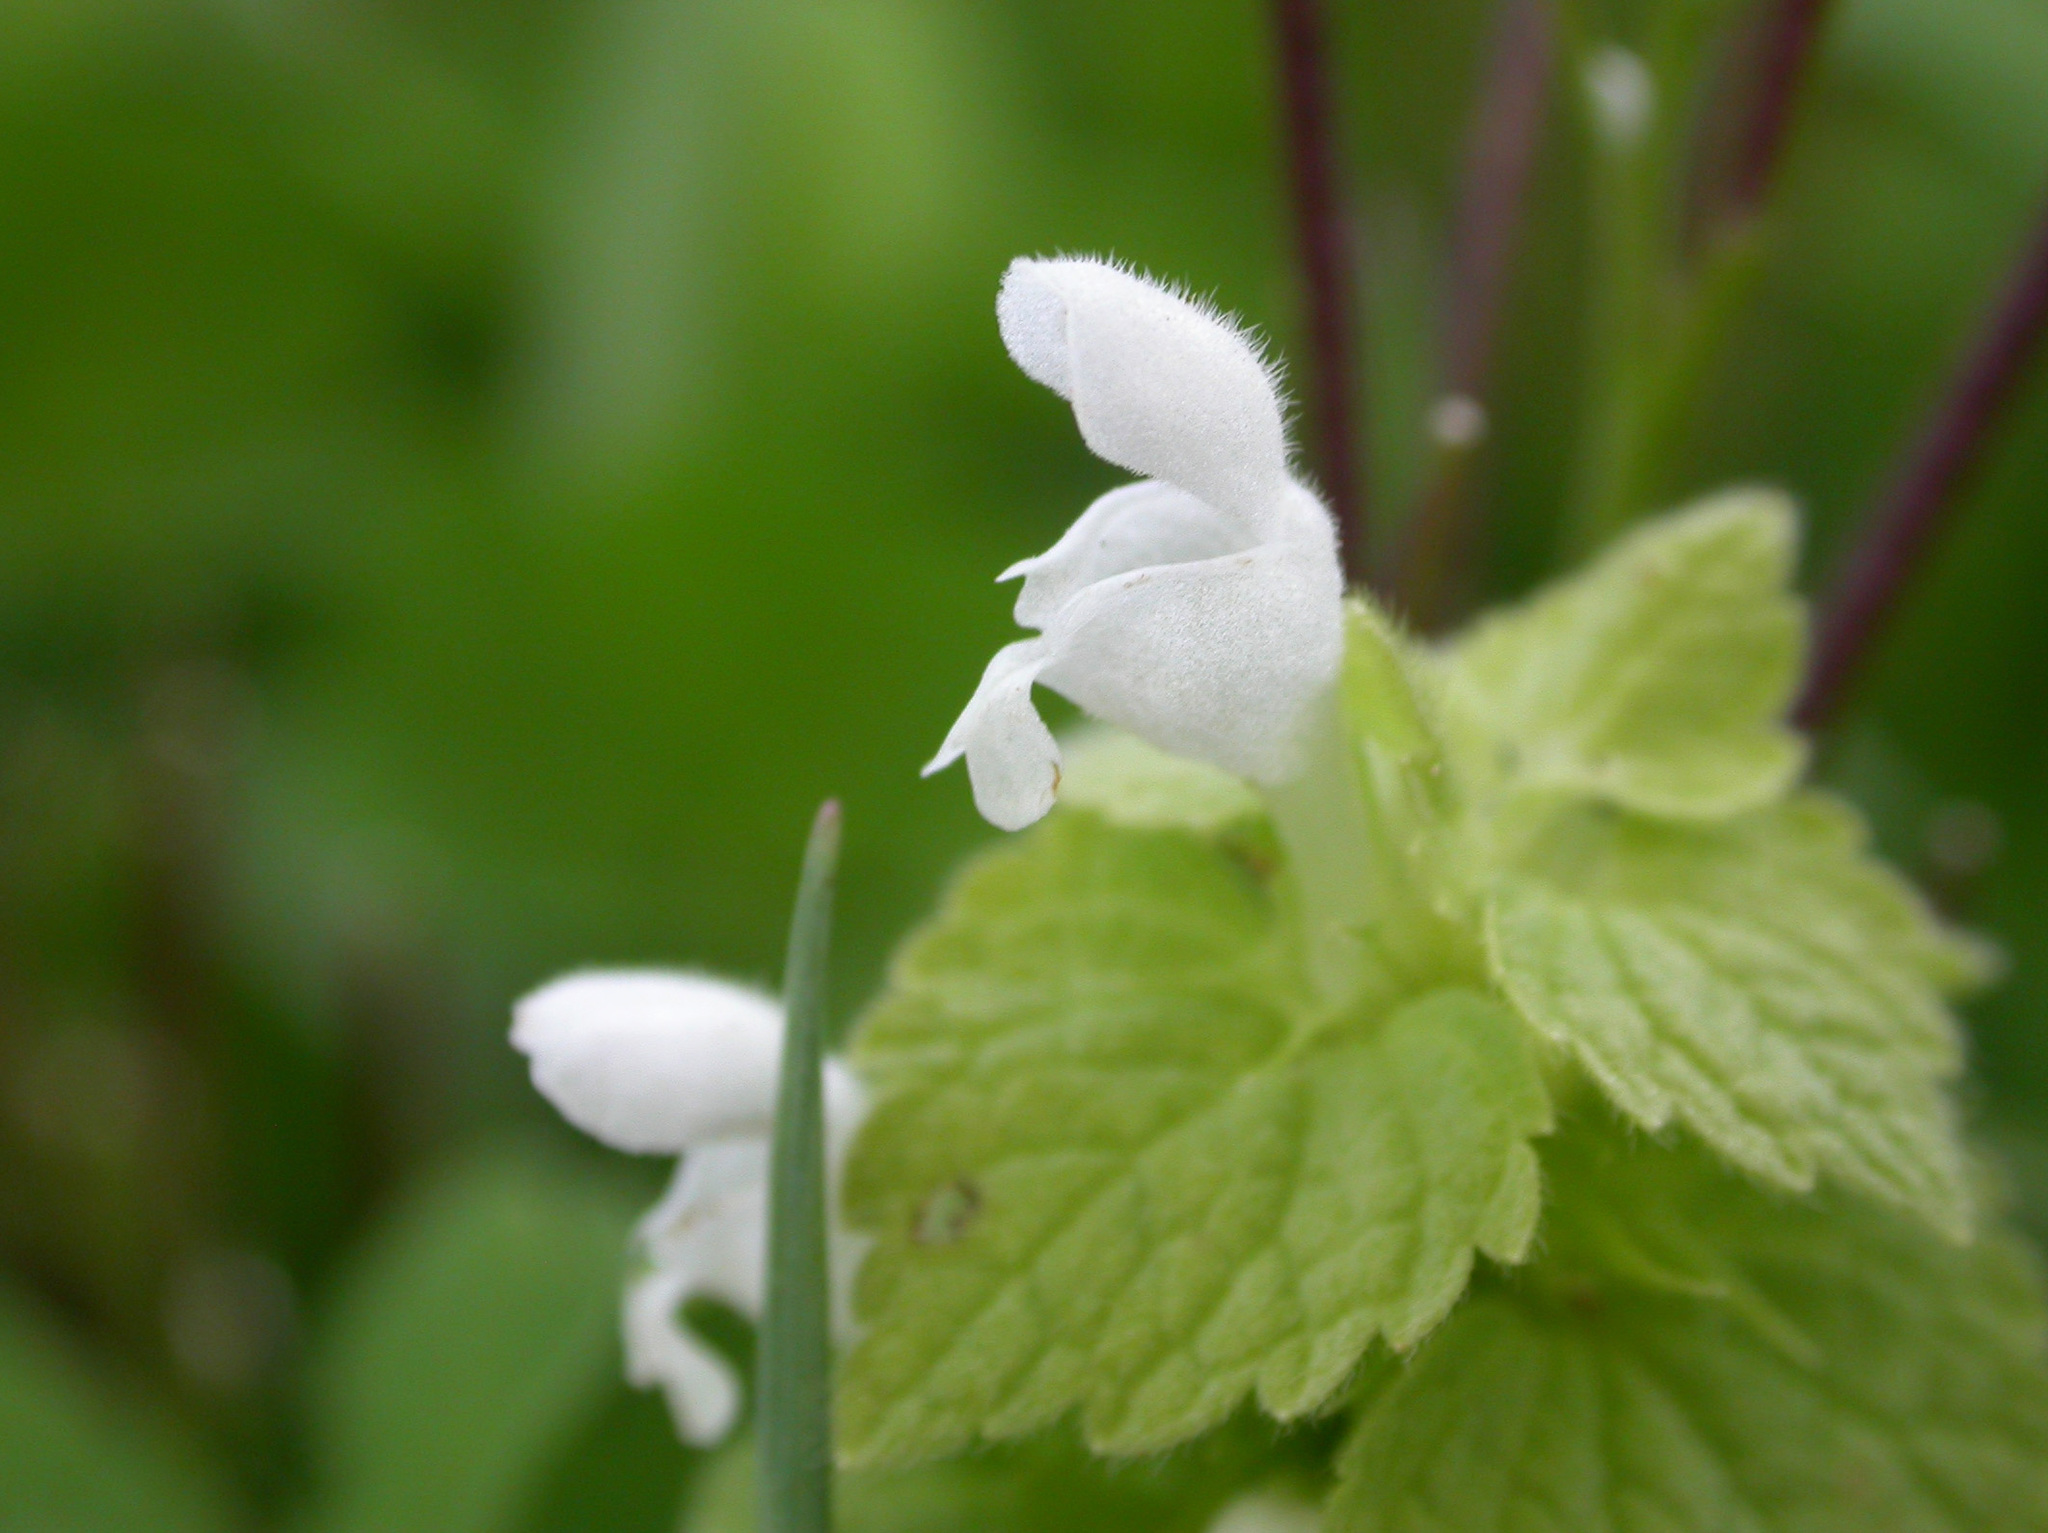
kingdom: Plantae
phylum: Tracheophyta
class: Magnoliopsida
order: Lamiales
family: Lamiaceae
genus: Lamium
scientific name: Lamium purpureum
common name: Red dead-nettle
